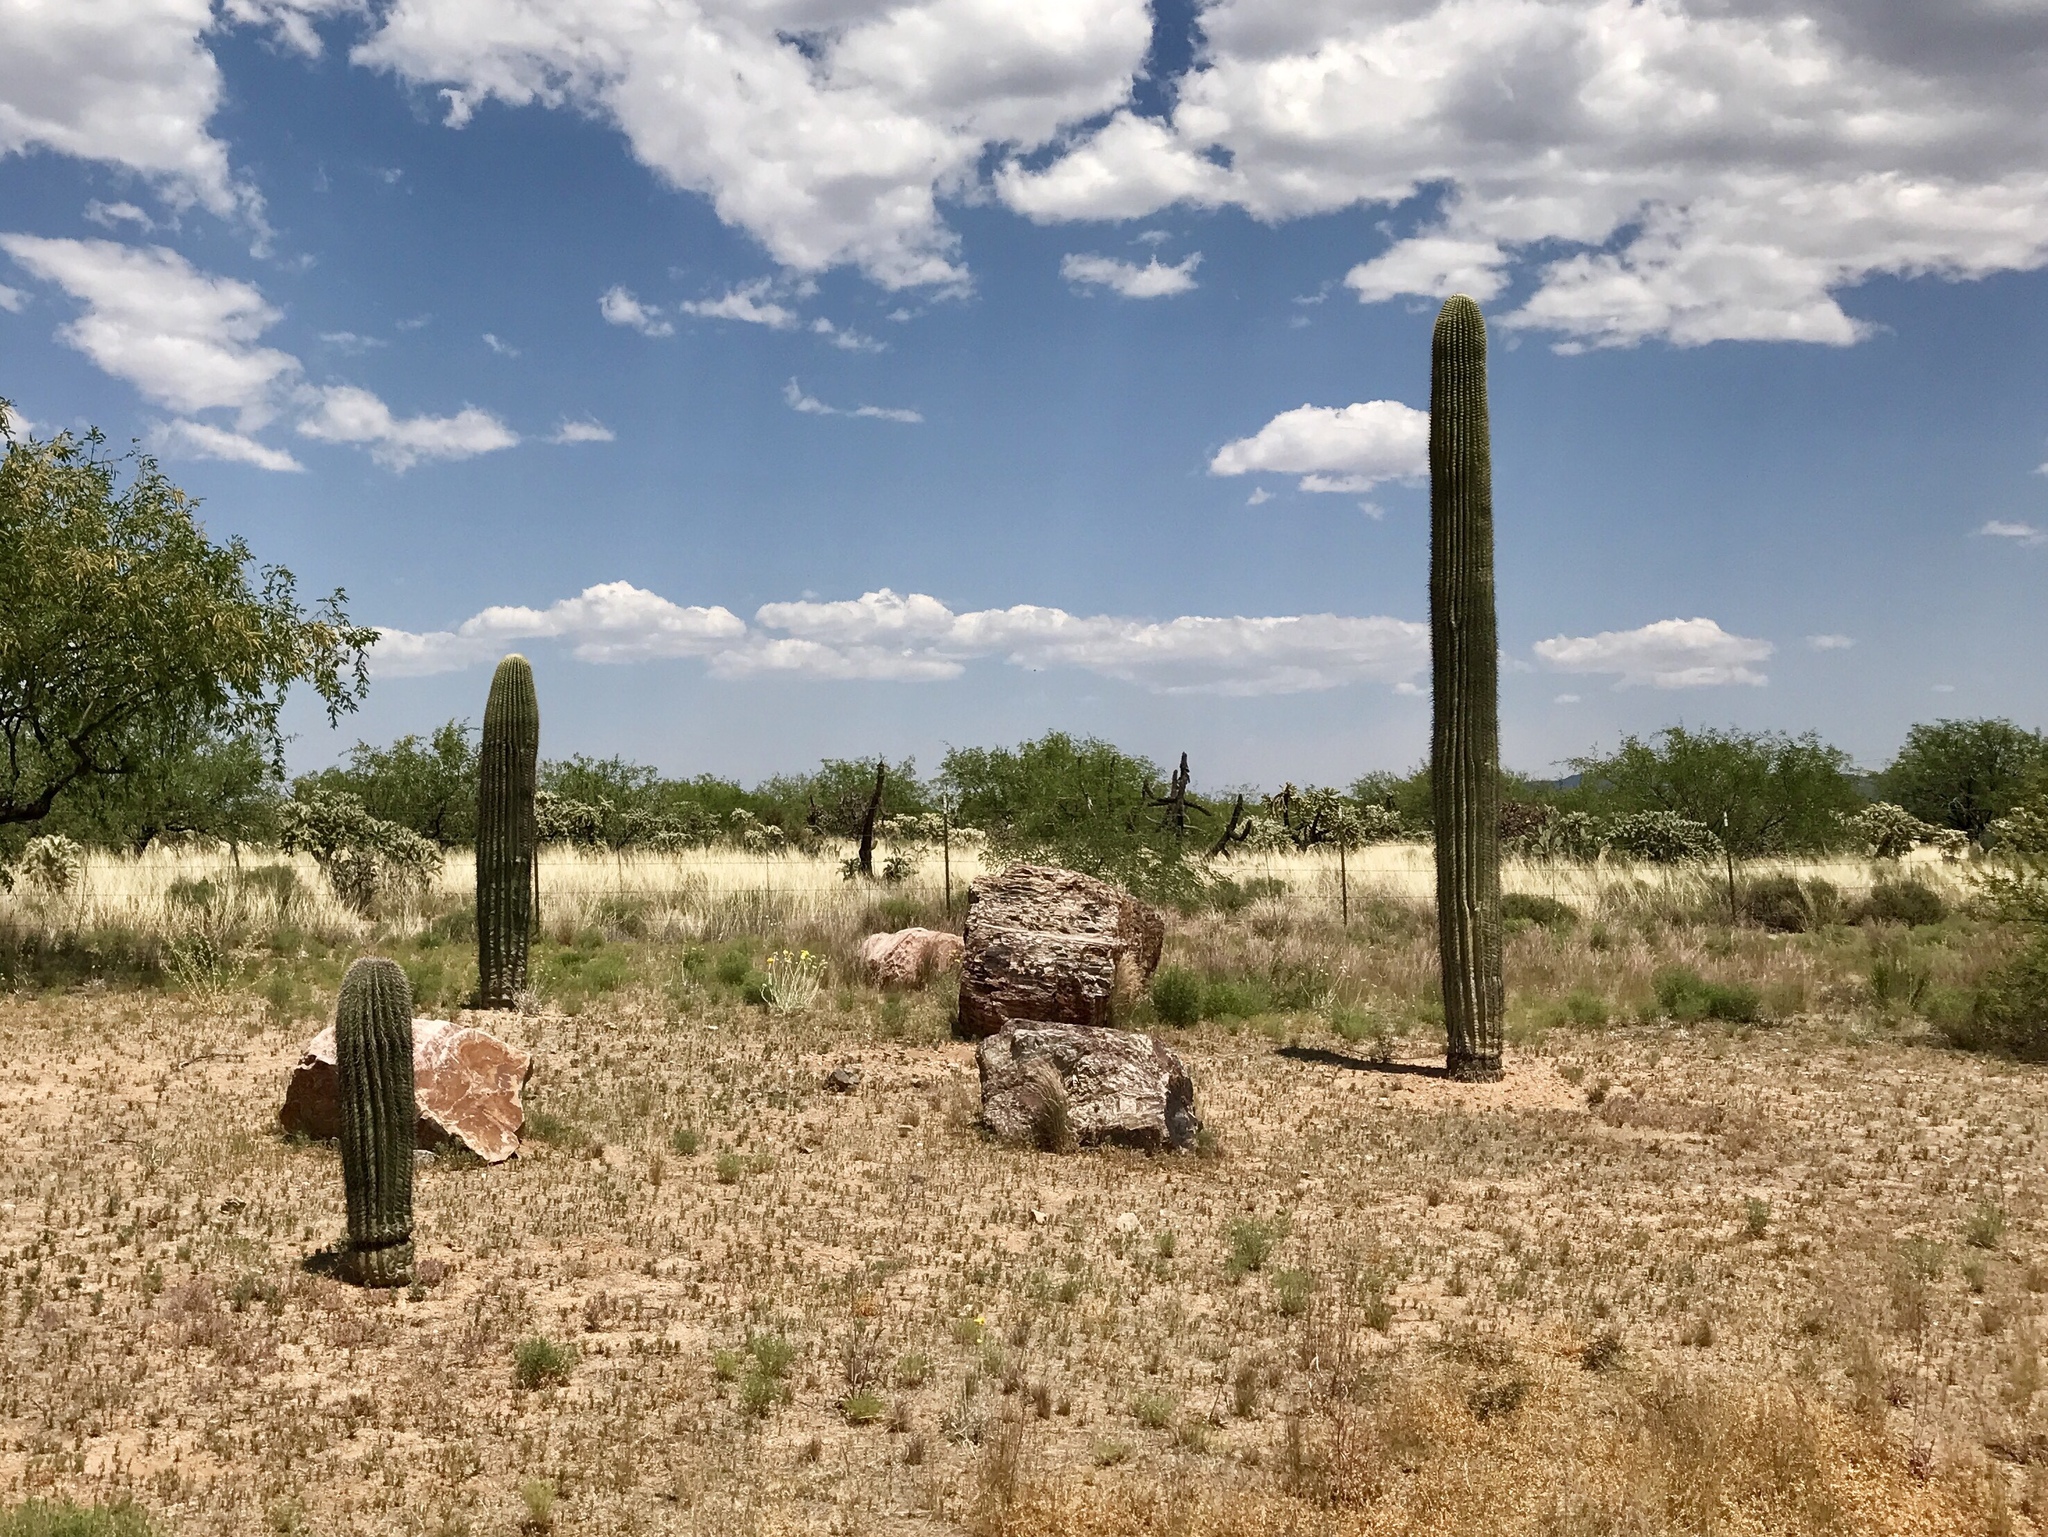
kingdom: Plantae
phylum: Tracheophyta
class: Magnoliopsida
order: Caryophyllales
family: Cactaceae
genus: Carnegiea
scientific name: Carnegiea gigantea
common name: Saguaro
